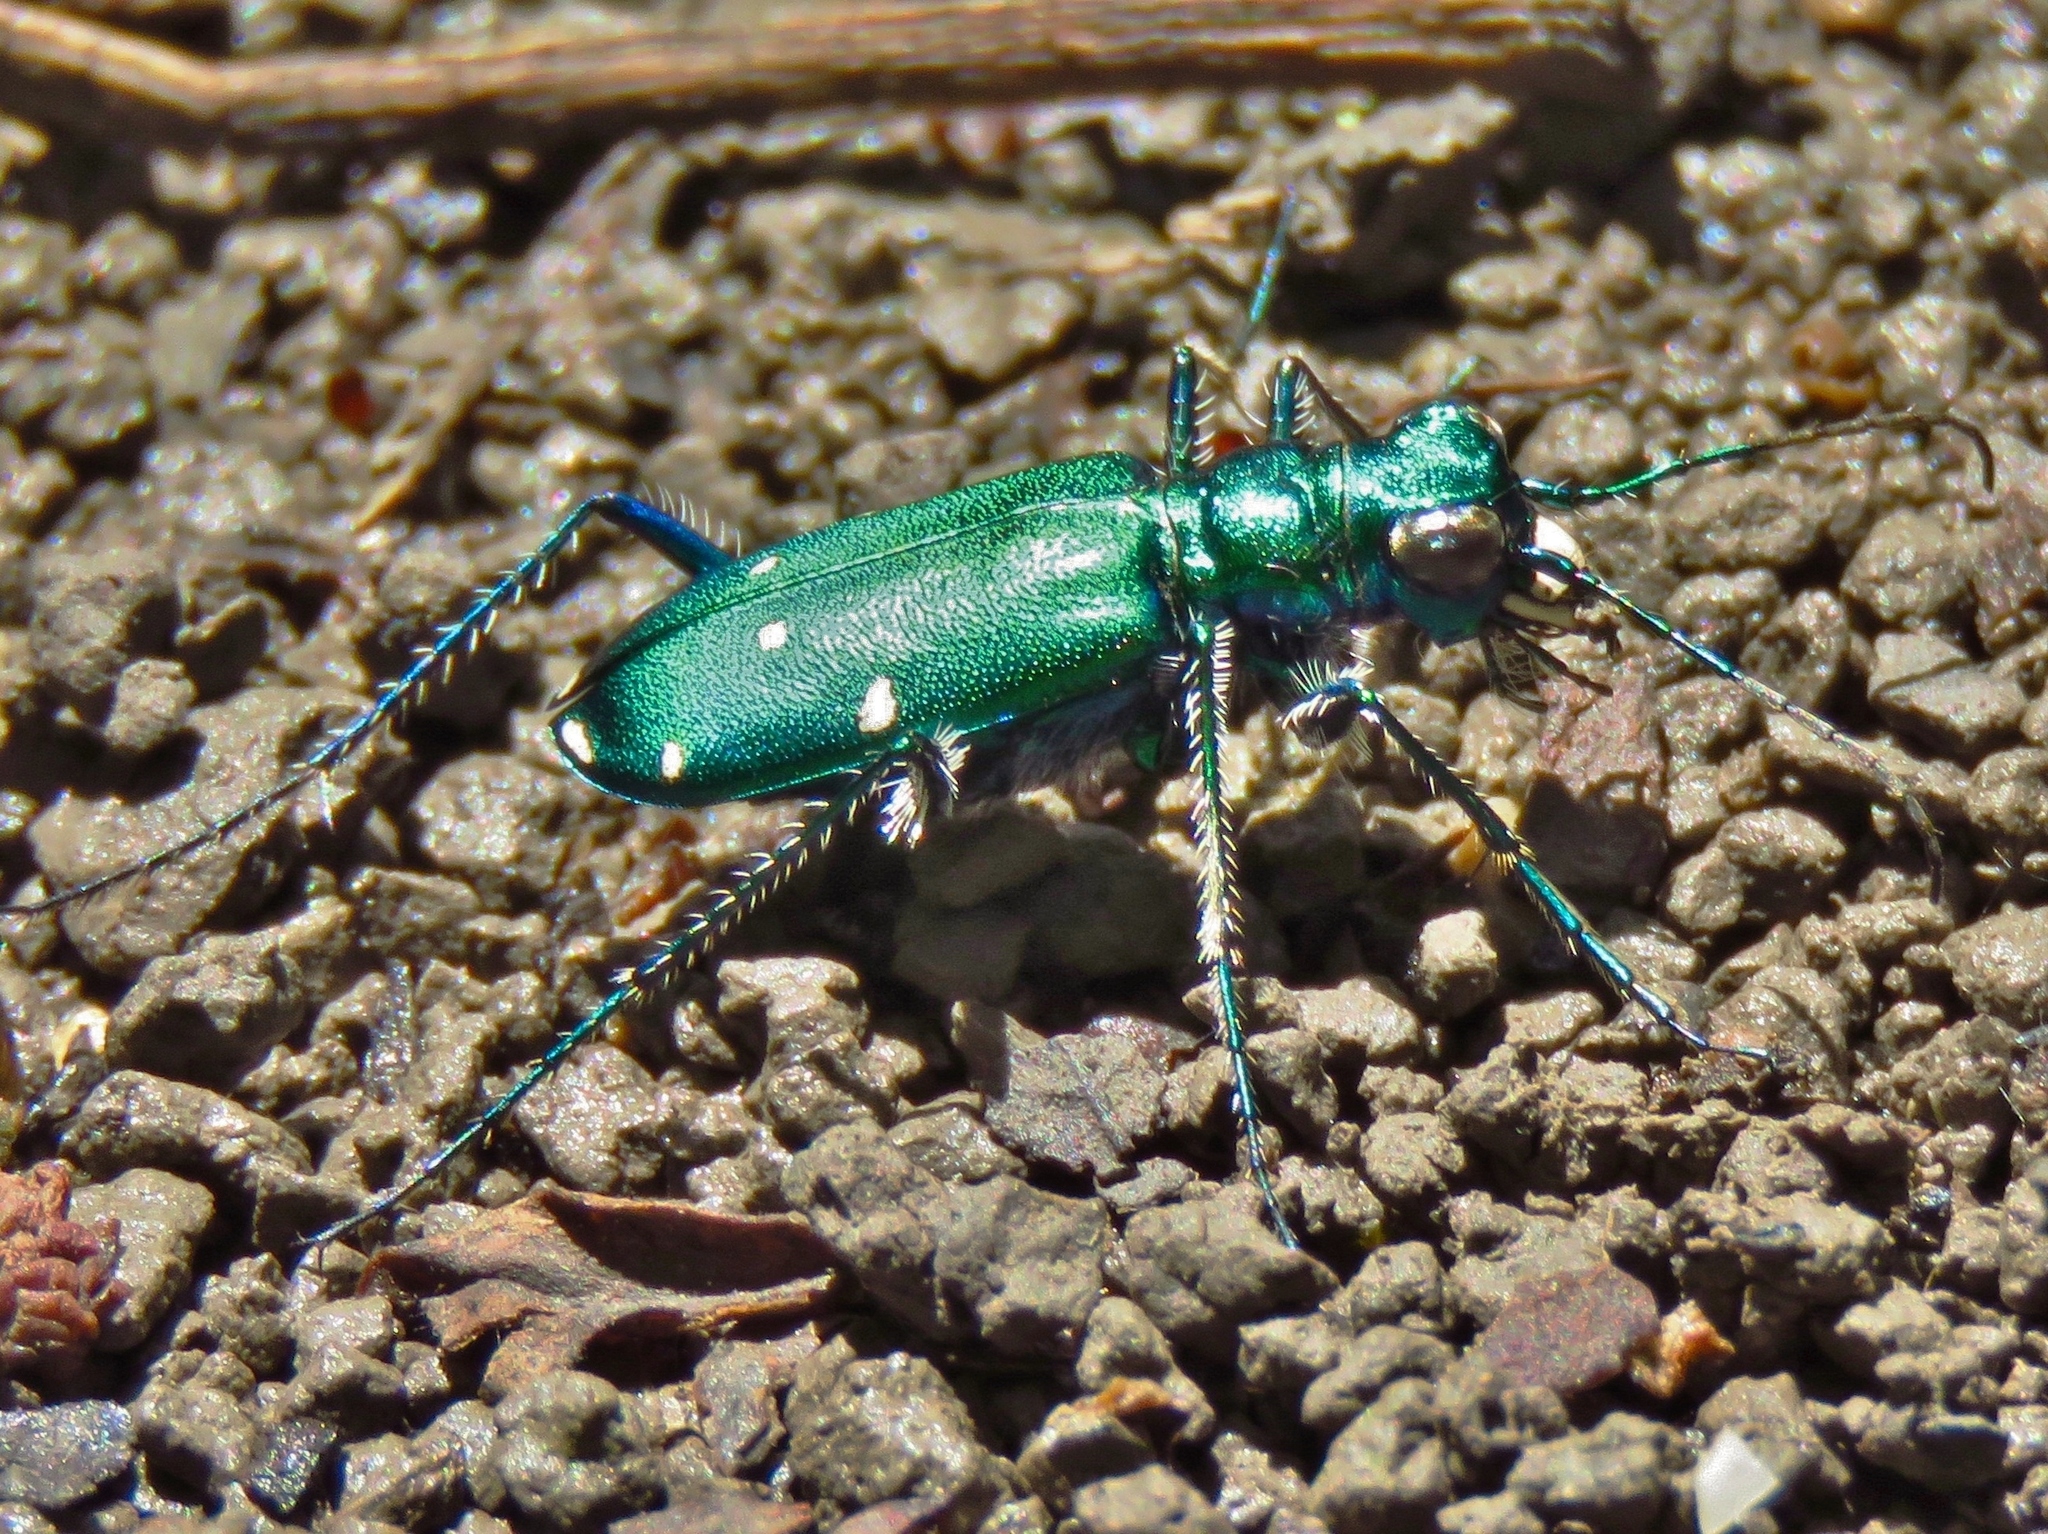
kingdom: Animalia
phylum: Arthropoda
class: Insecta
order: Coleoptera
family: Carabidae
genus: Cicindela
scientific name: Cicindela sexguttata
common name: Six-spotted tiger beetle
